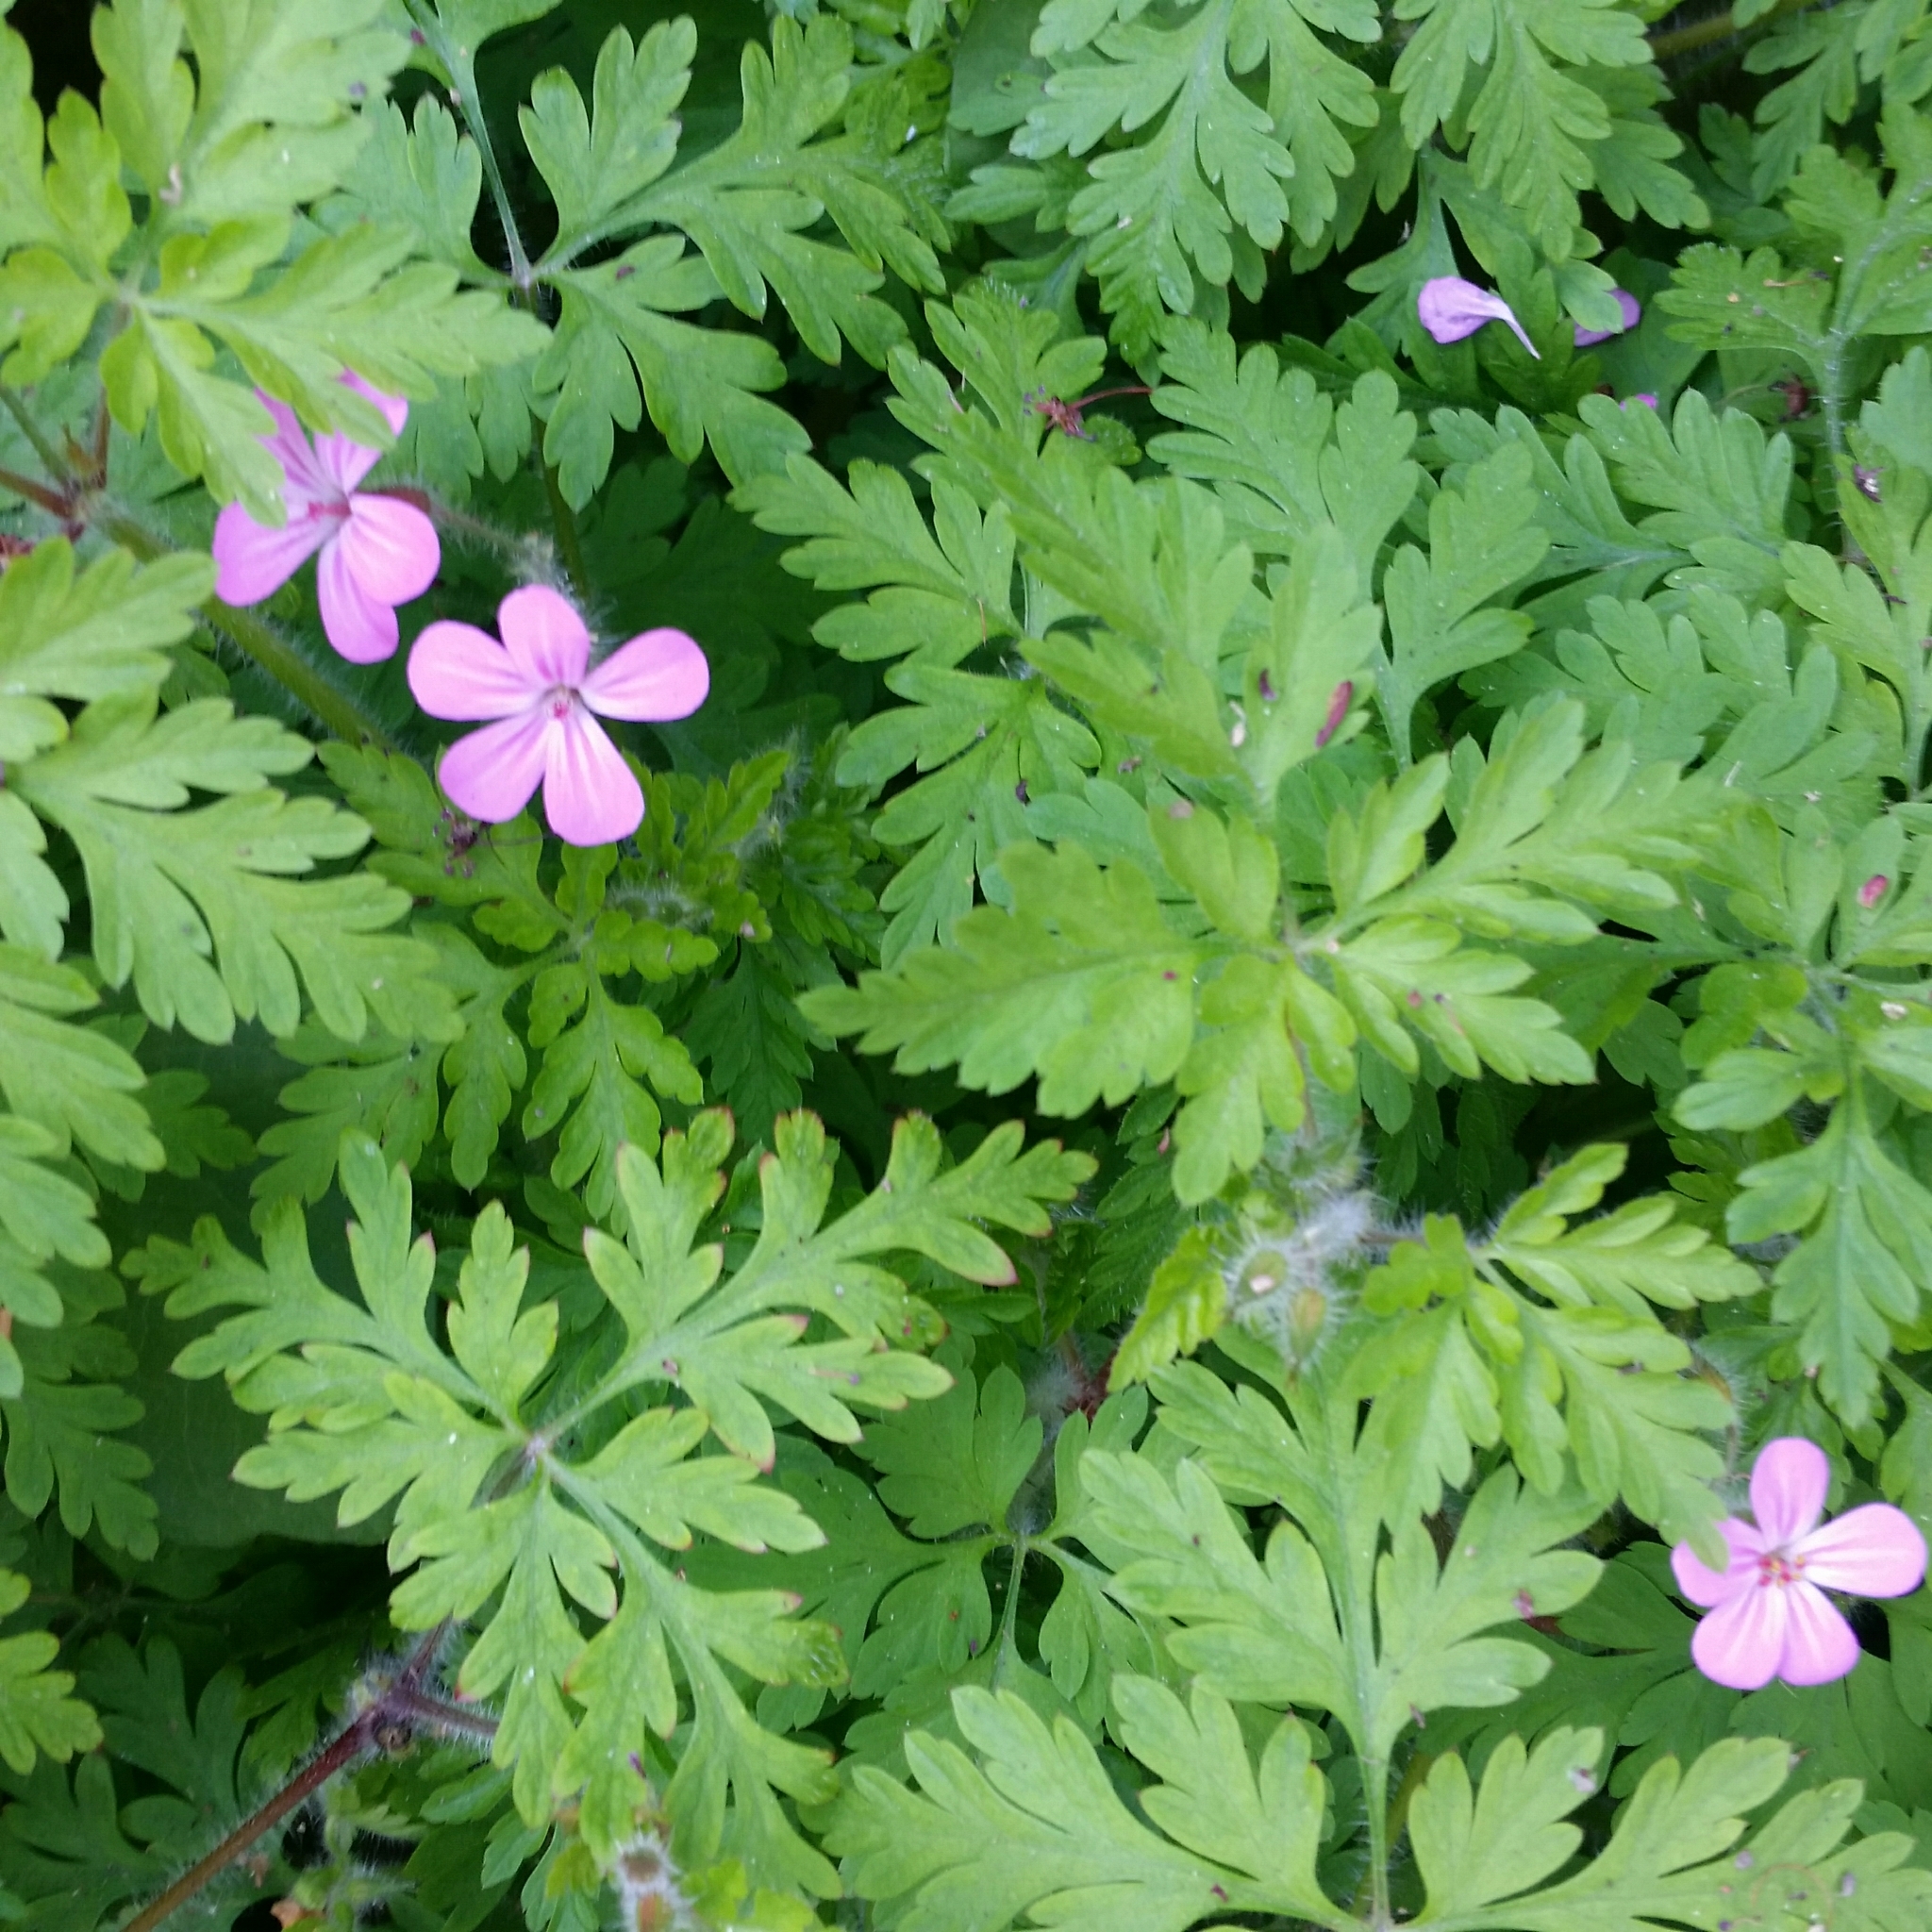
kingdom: Plantae
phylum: Tracheophyta
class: Magnoliopsida
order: Geraniales
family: Geraniaceae
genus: Geranium
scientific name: Geranium robertianum
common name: Herb-robert
